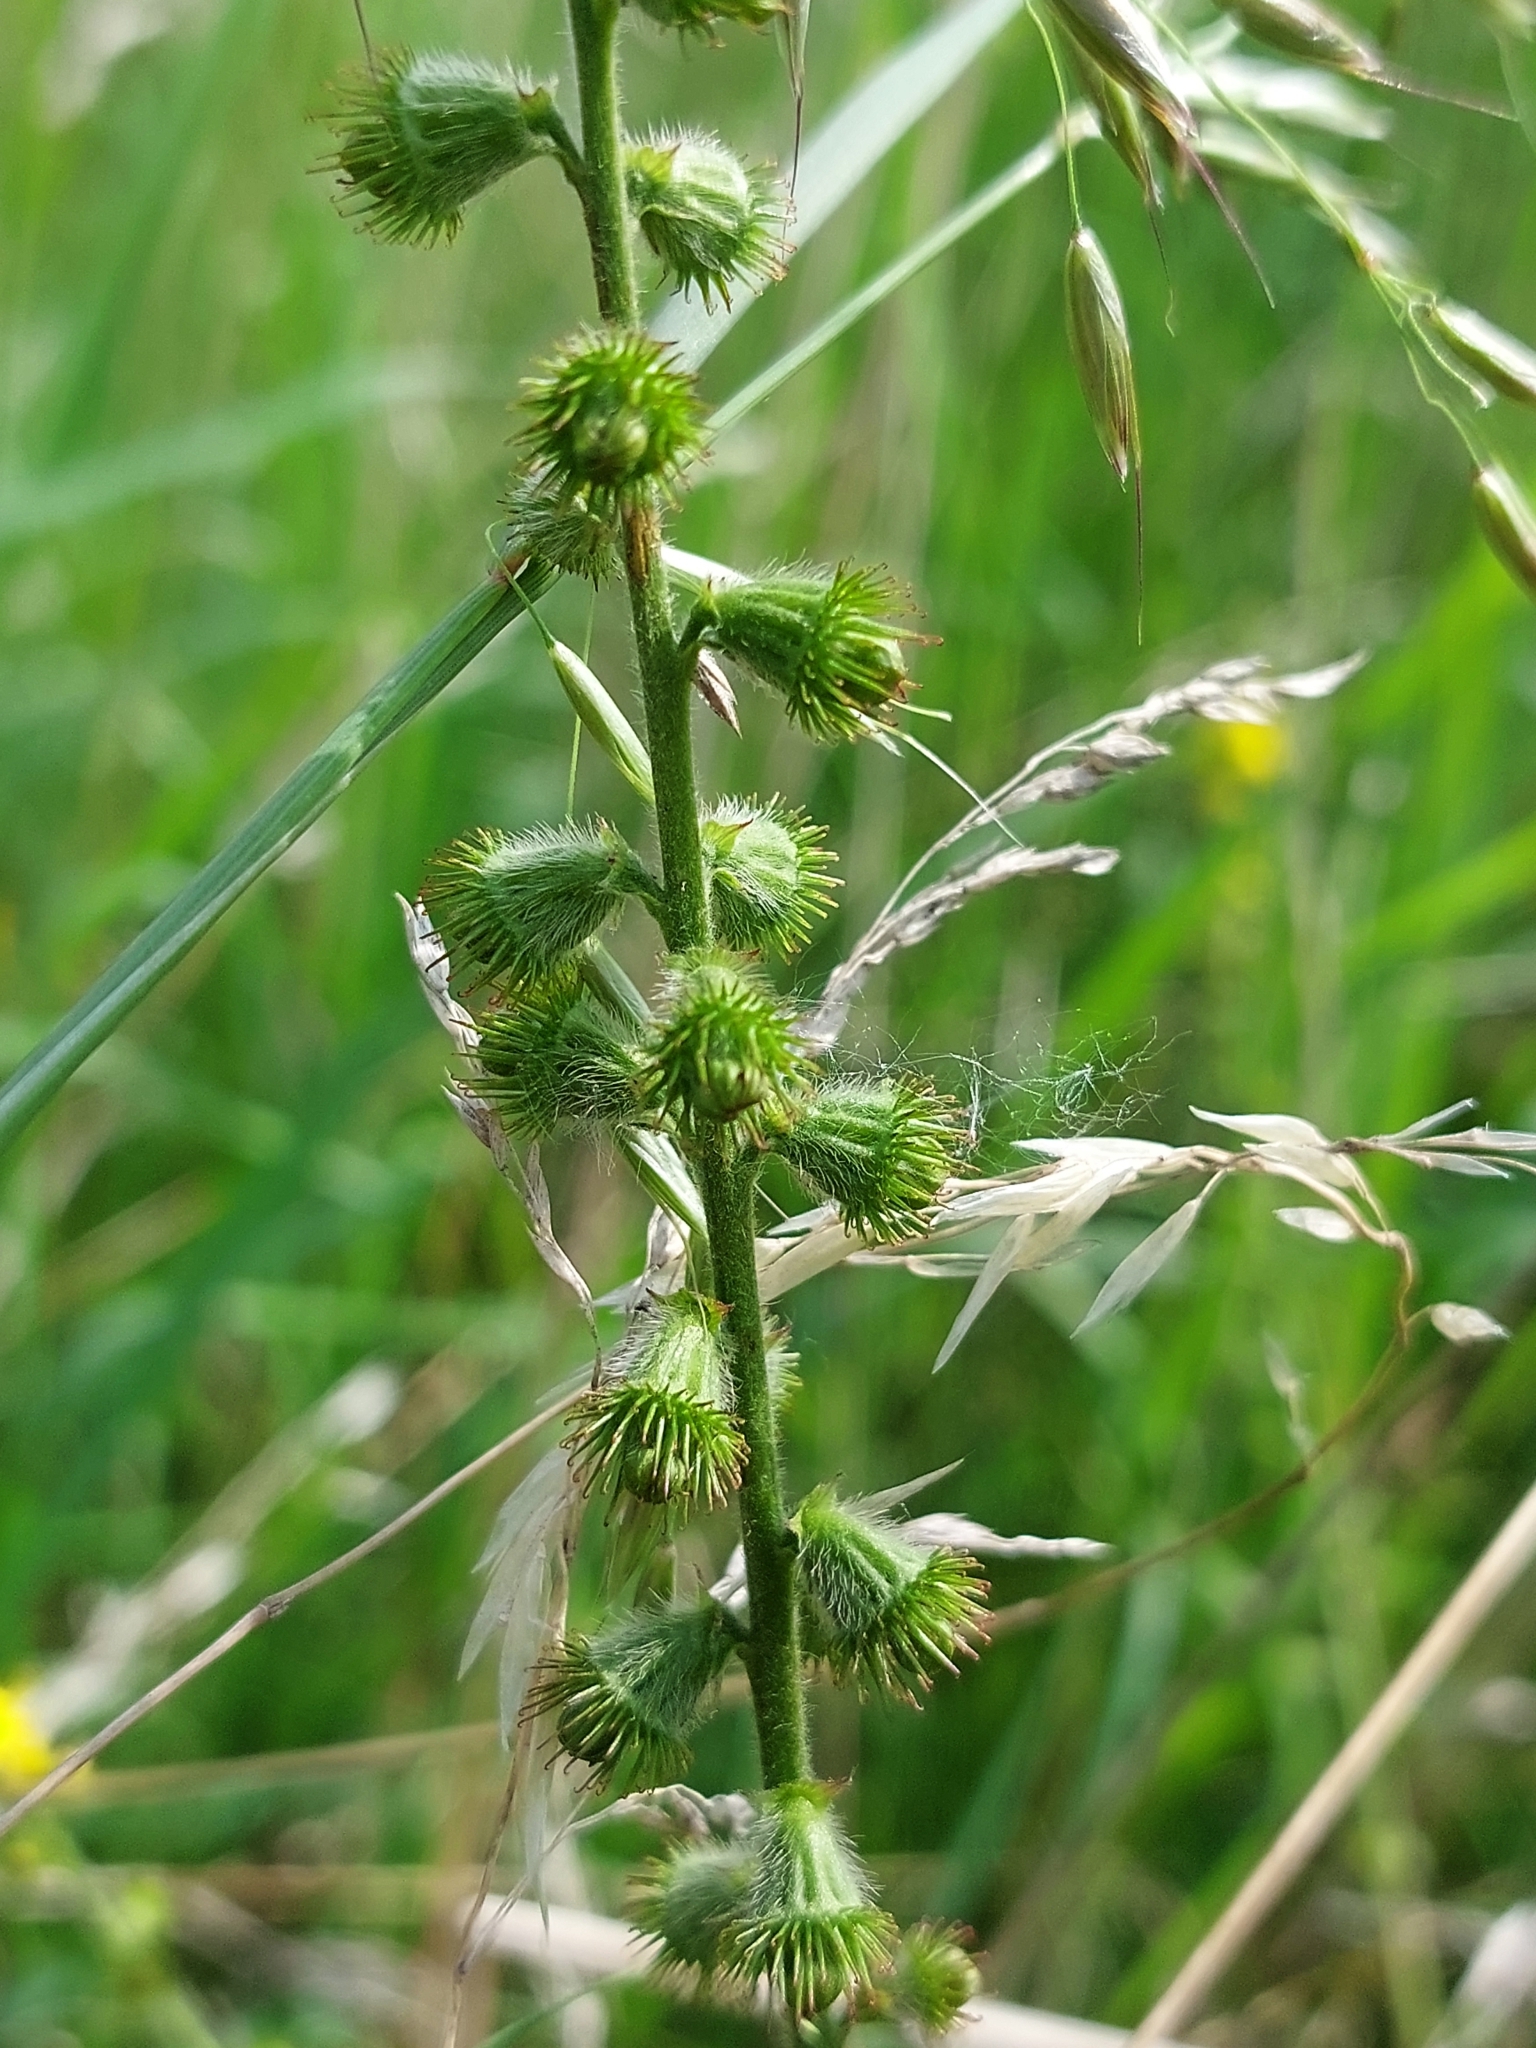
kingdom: Plantae
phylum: Tracheophyta
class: Magnoliopsida
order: Rosales
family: Rosaceae
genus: Agrimonia
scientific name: Agrimonia eupatoria
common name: Agrimony
